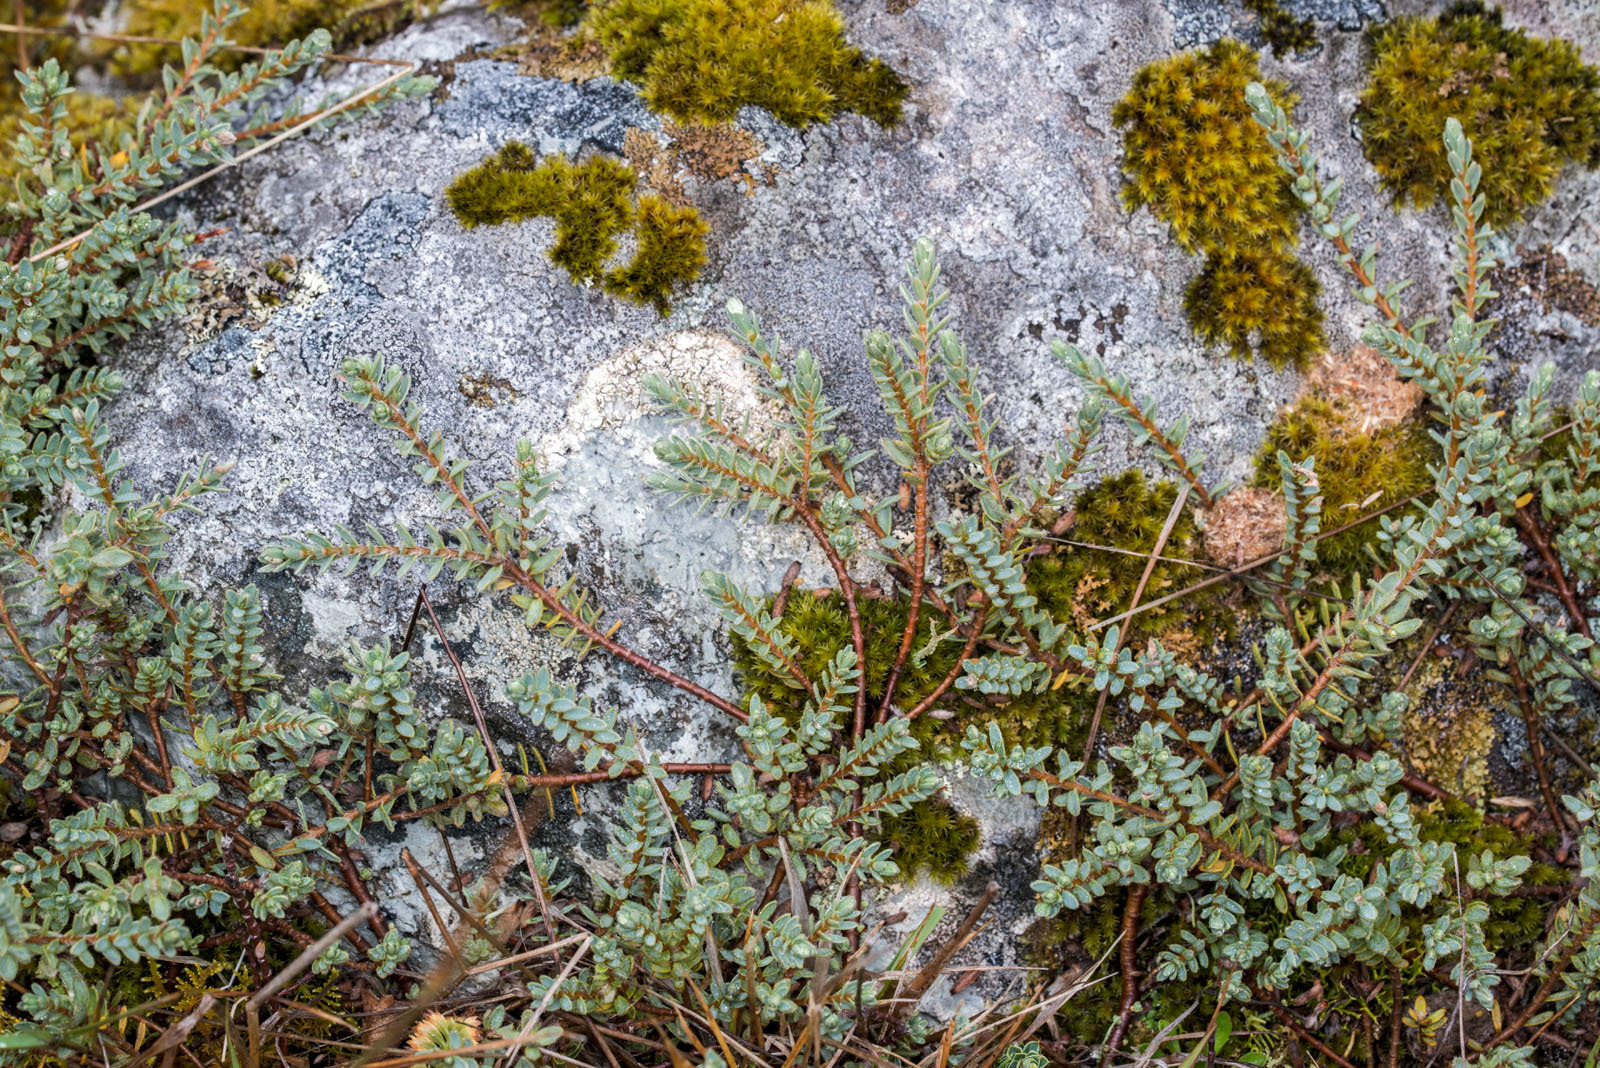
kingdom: Plantae
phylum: Tracheophyta
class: Magnoliopsida
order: Malvales
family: Thymelaeaceae
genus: Pimelea
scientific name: Pimelea mesoa
